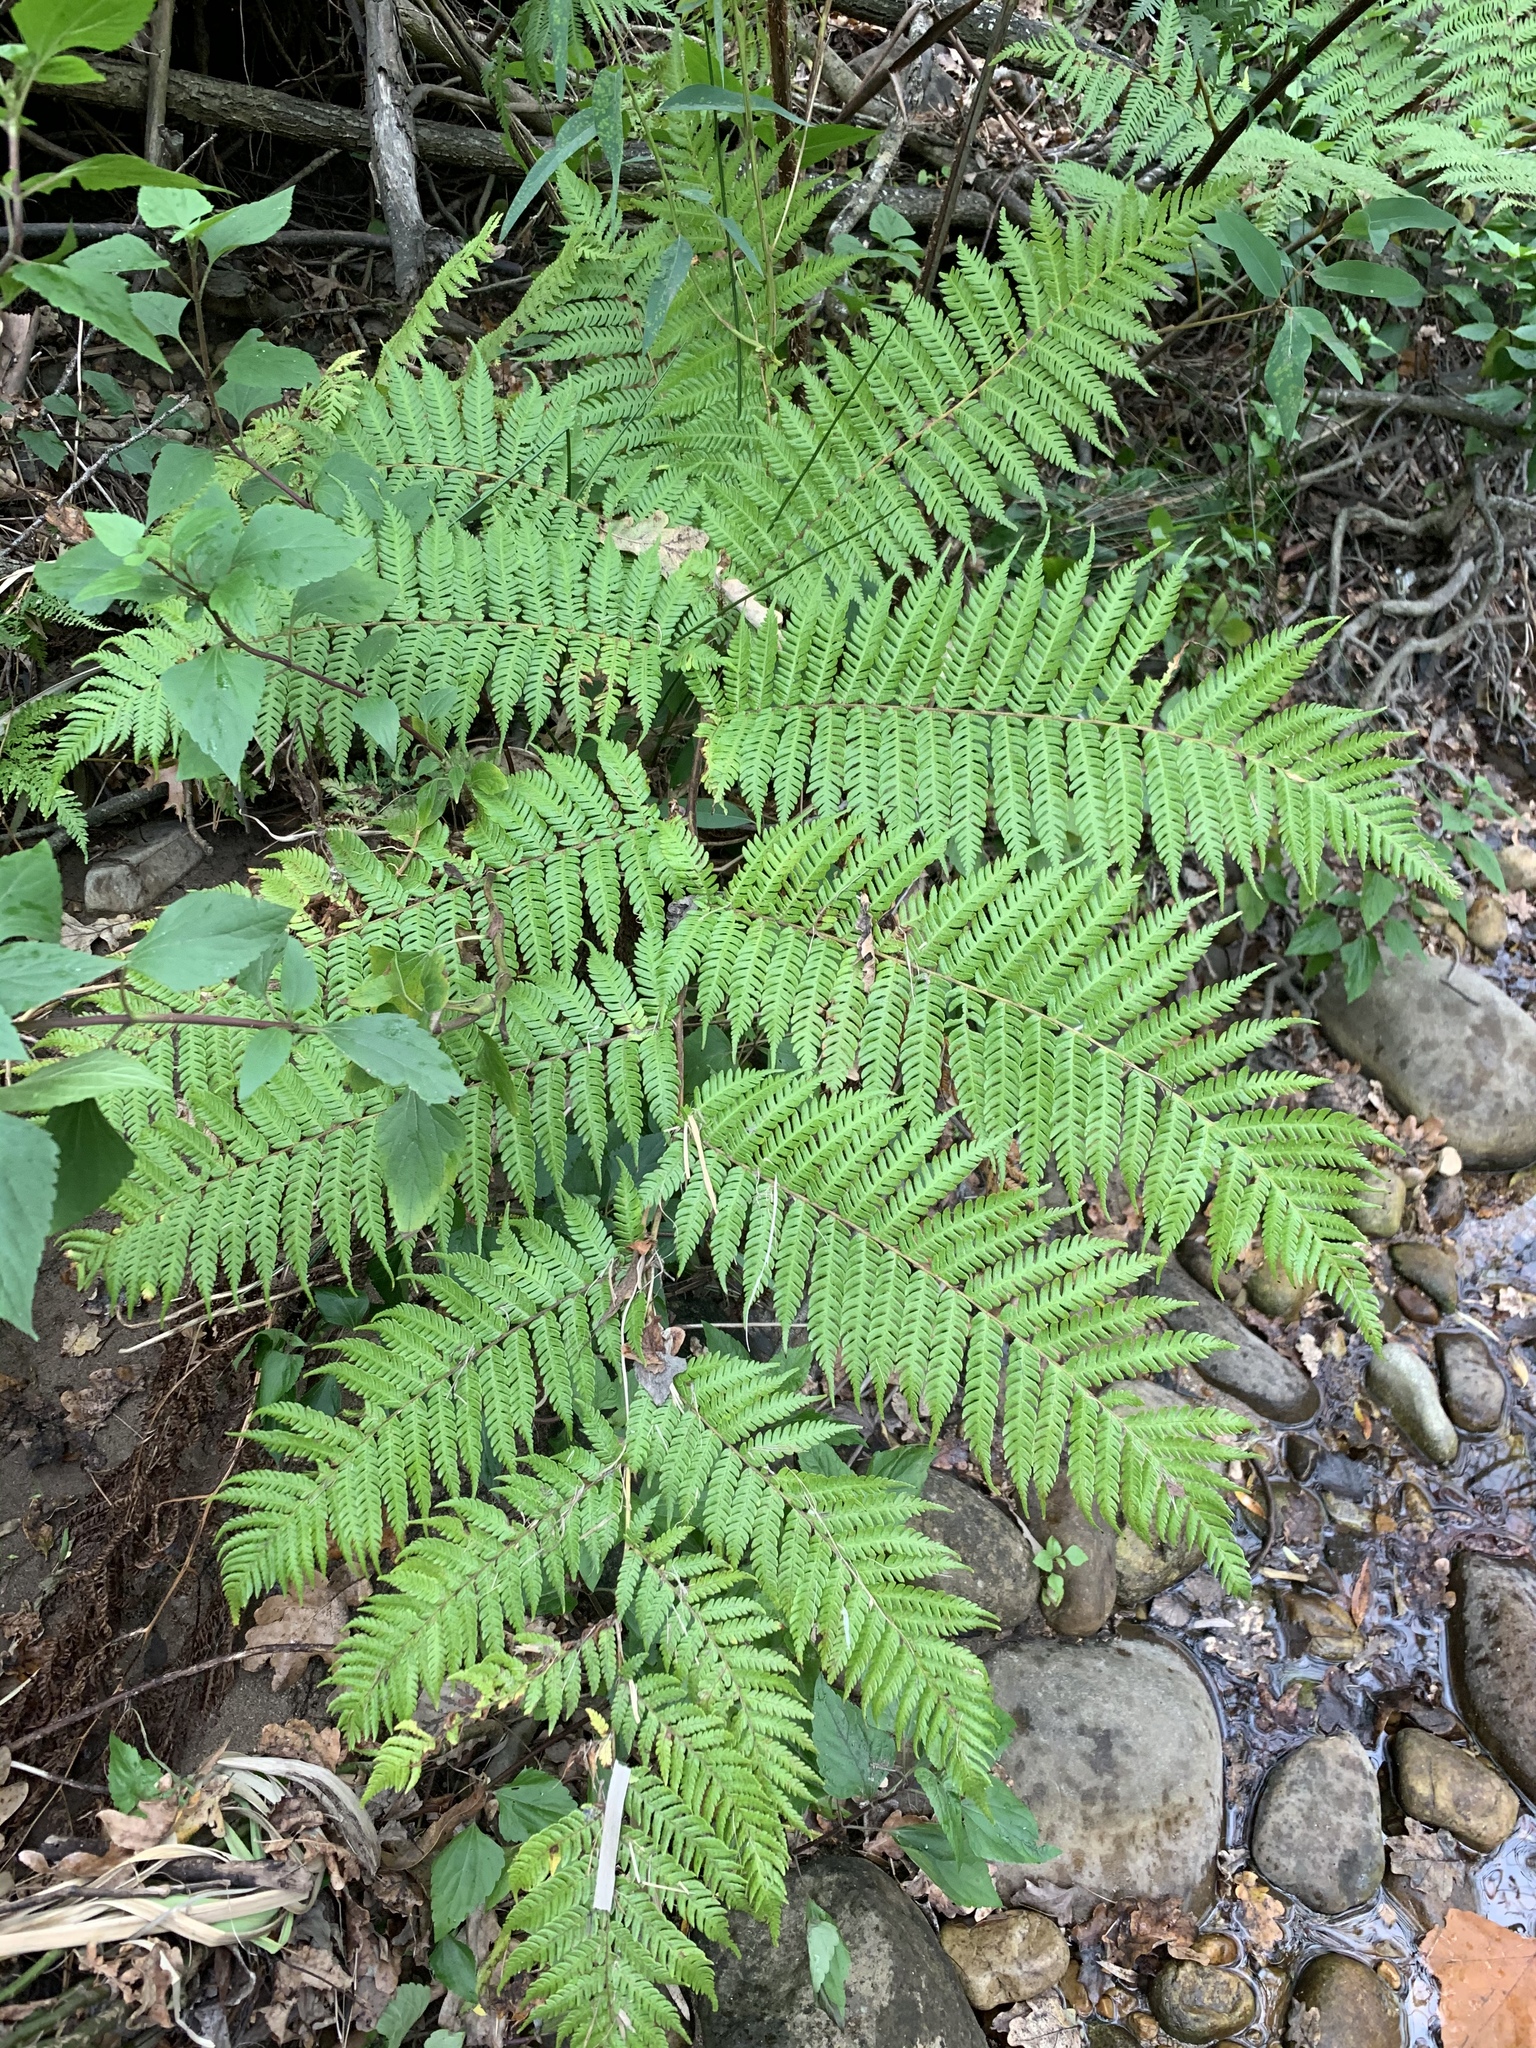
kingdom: Plantae
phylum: Tracheophyta
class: Polypodiopsida
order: Cyatheales
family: Cyatheaceae
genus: Sphaeropteris
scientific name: Sphaeropteris cooperi
